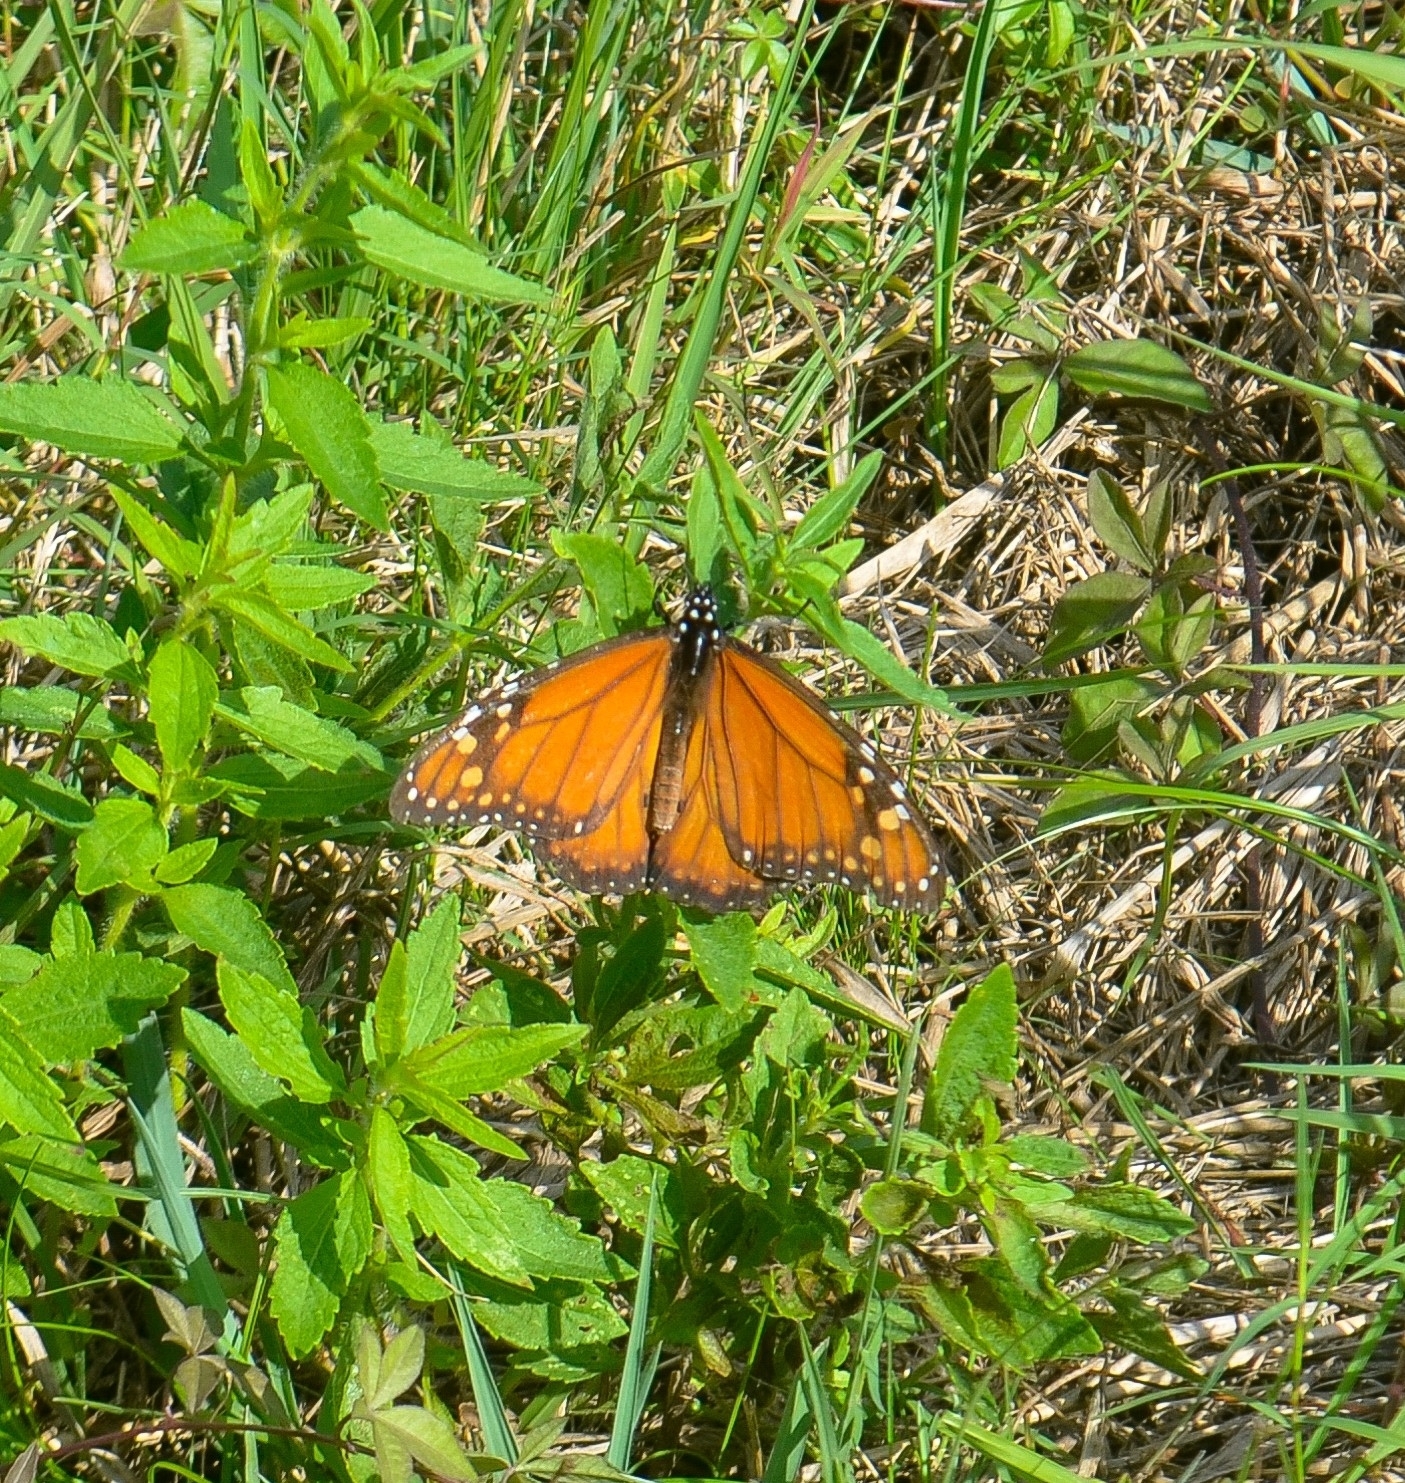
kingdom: Animalia
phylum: Arthropoda
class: Insecta
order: Lepidoptera
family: Nymphalidae
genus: Danaus
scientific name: Danaus erippus
